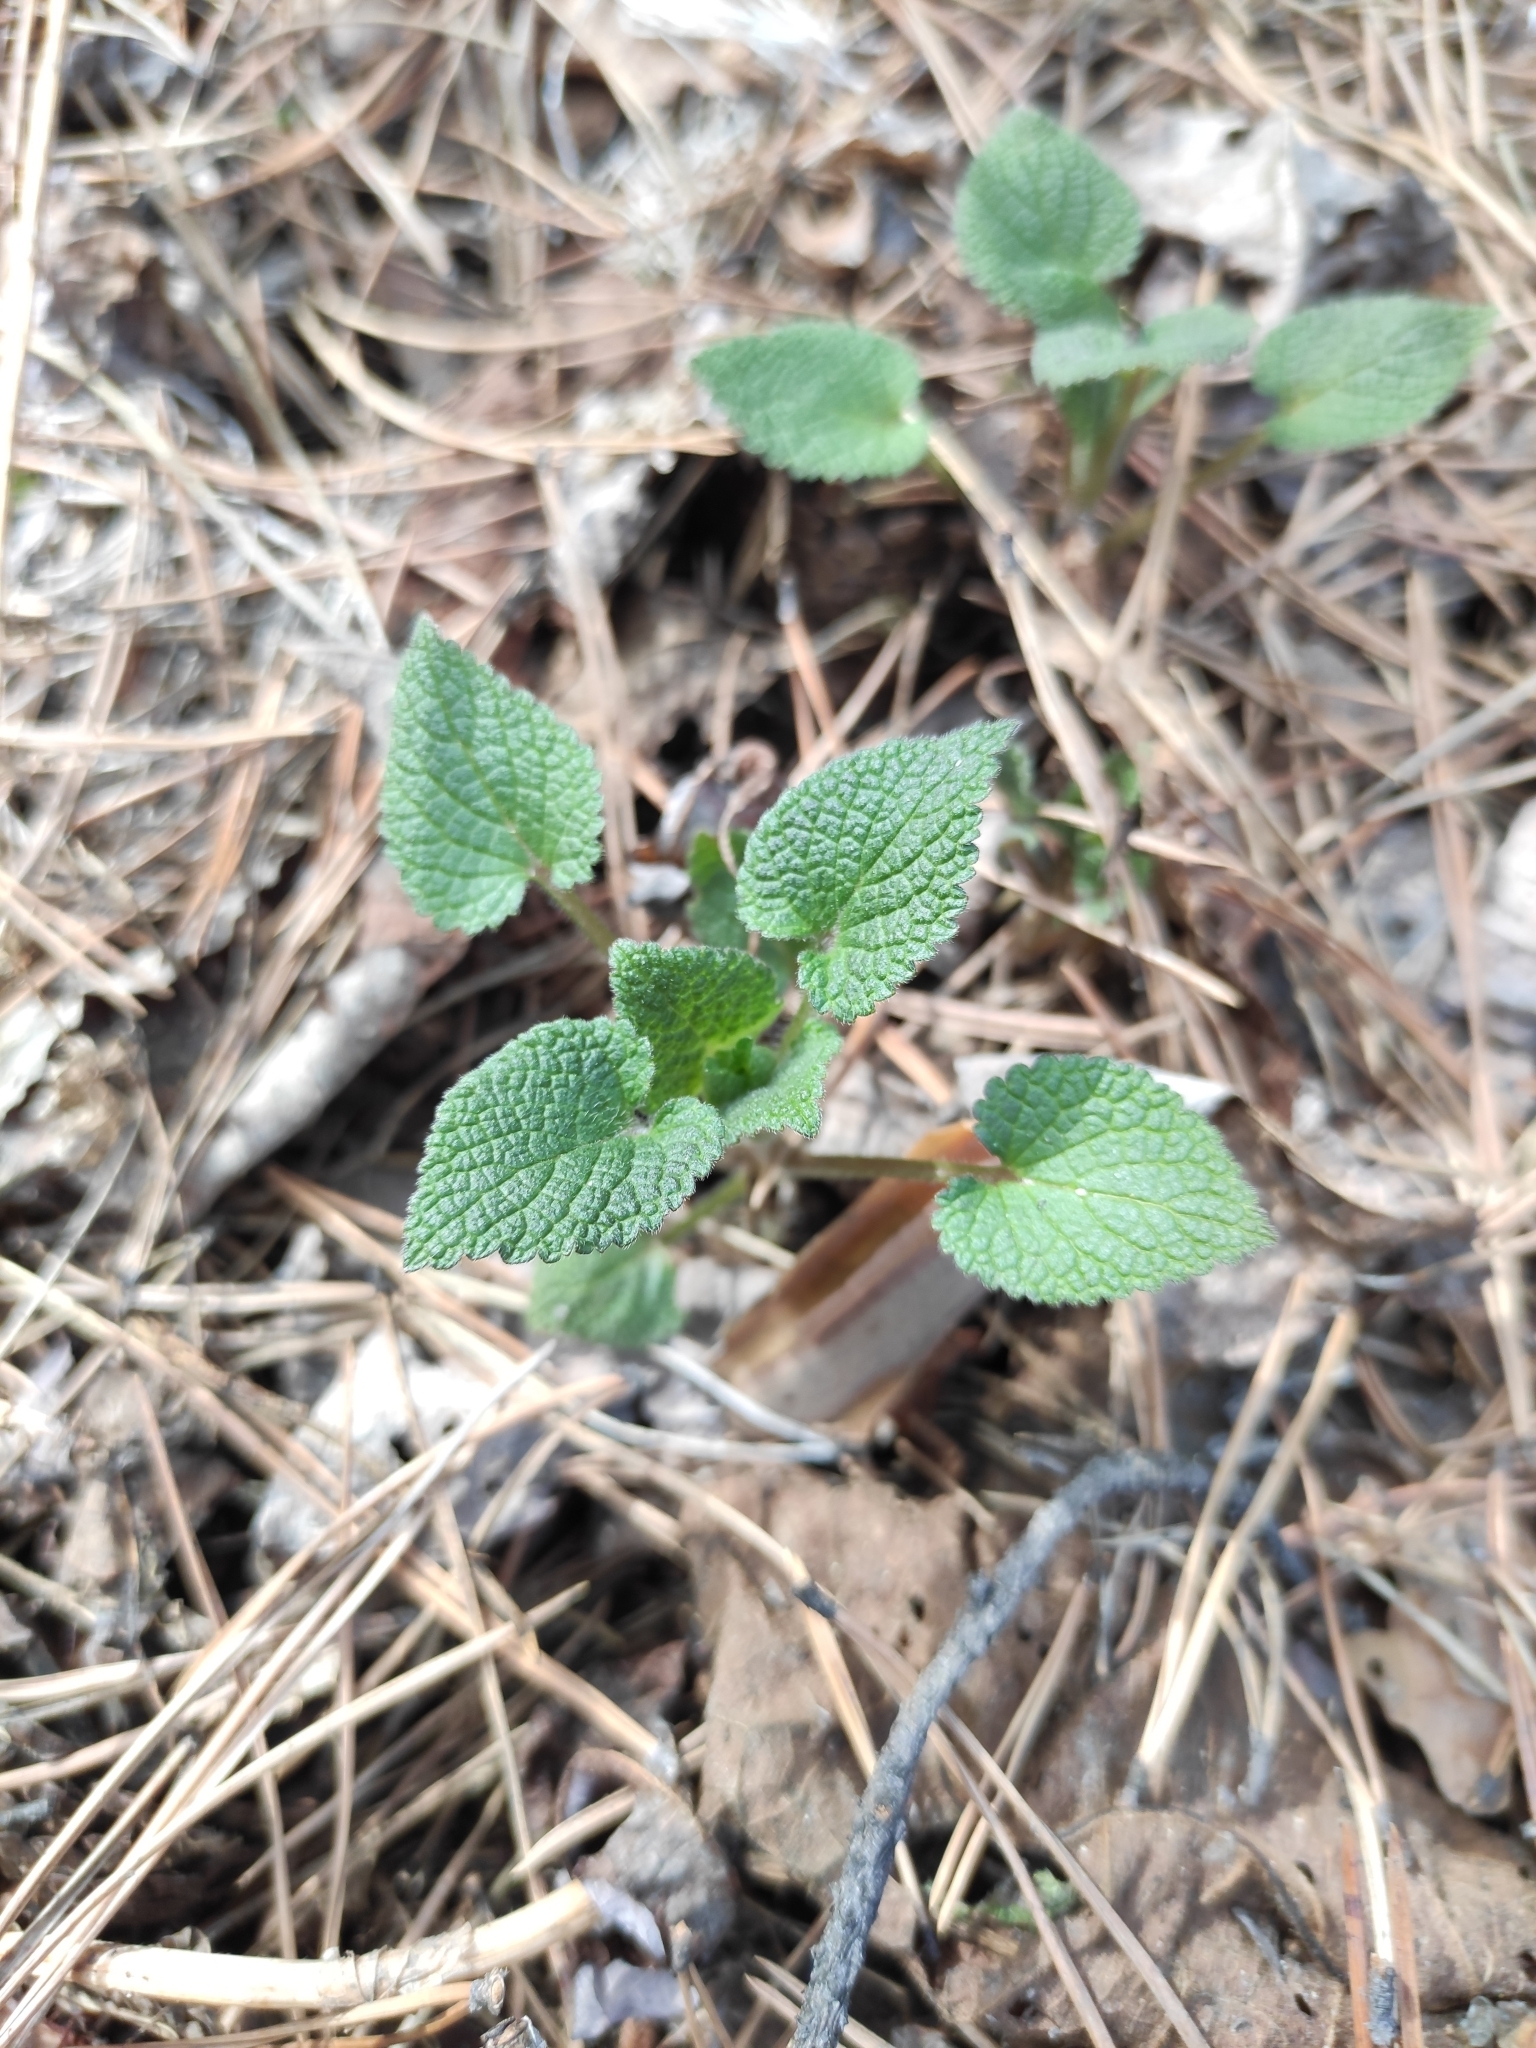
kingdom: Plantae
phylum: Tracheophyta
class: Magnoliopsida
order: Lamiales
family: Lamiaceae
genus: Lamium
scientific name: Lamium album
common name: White dead-nettle
